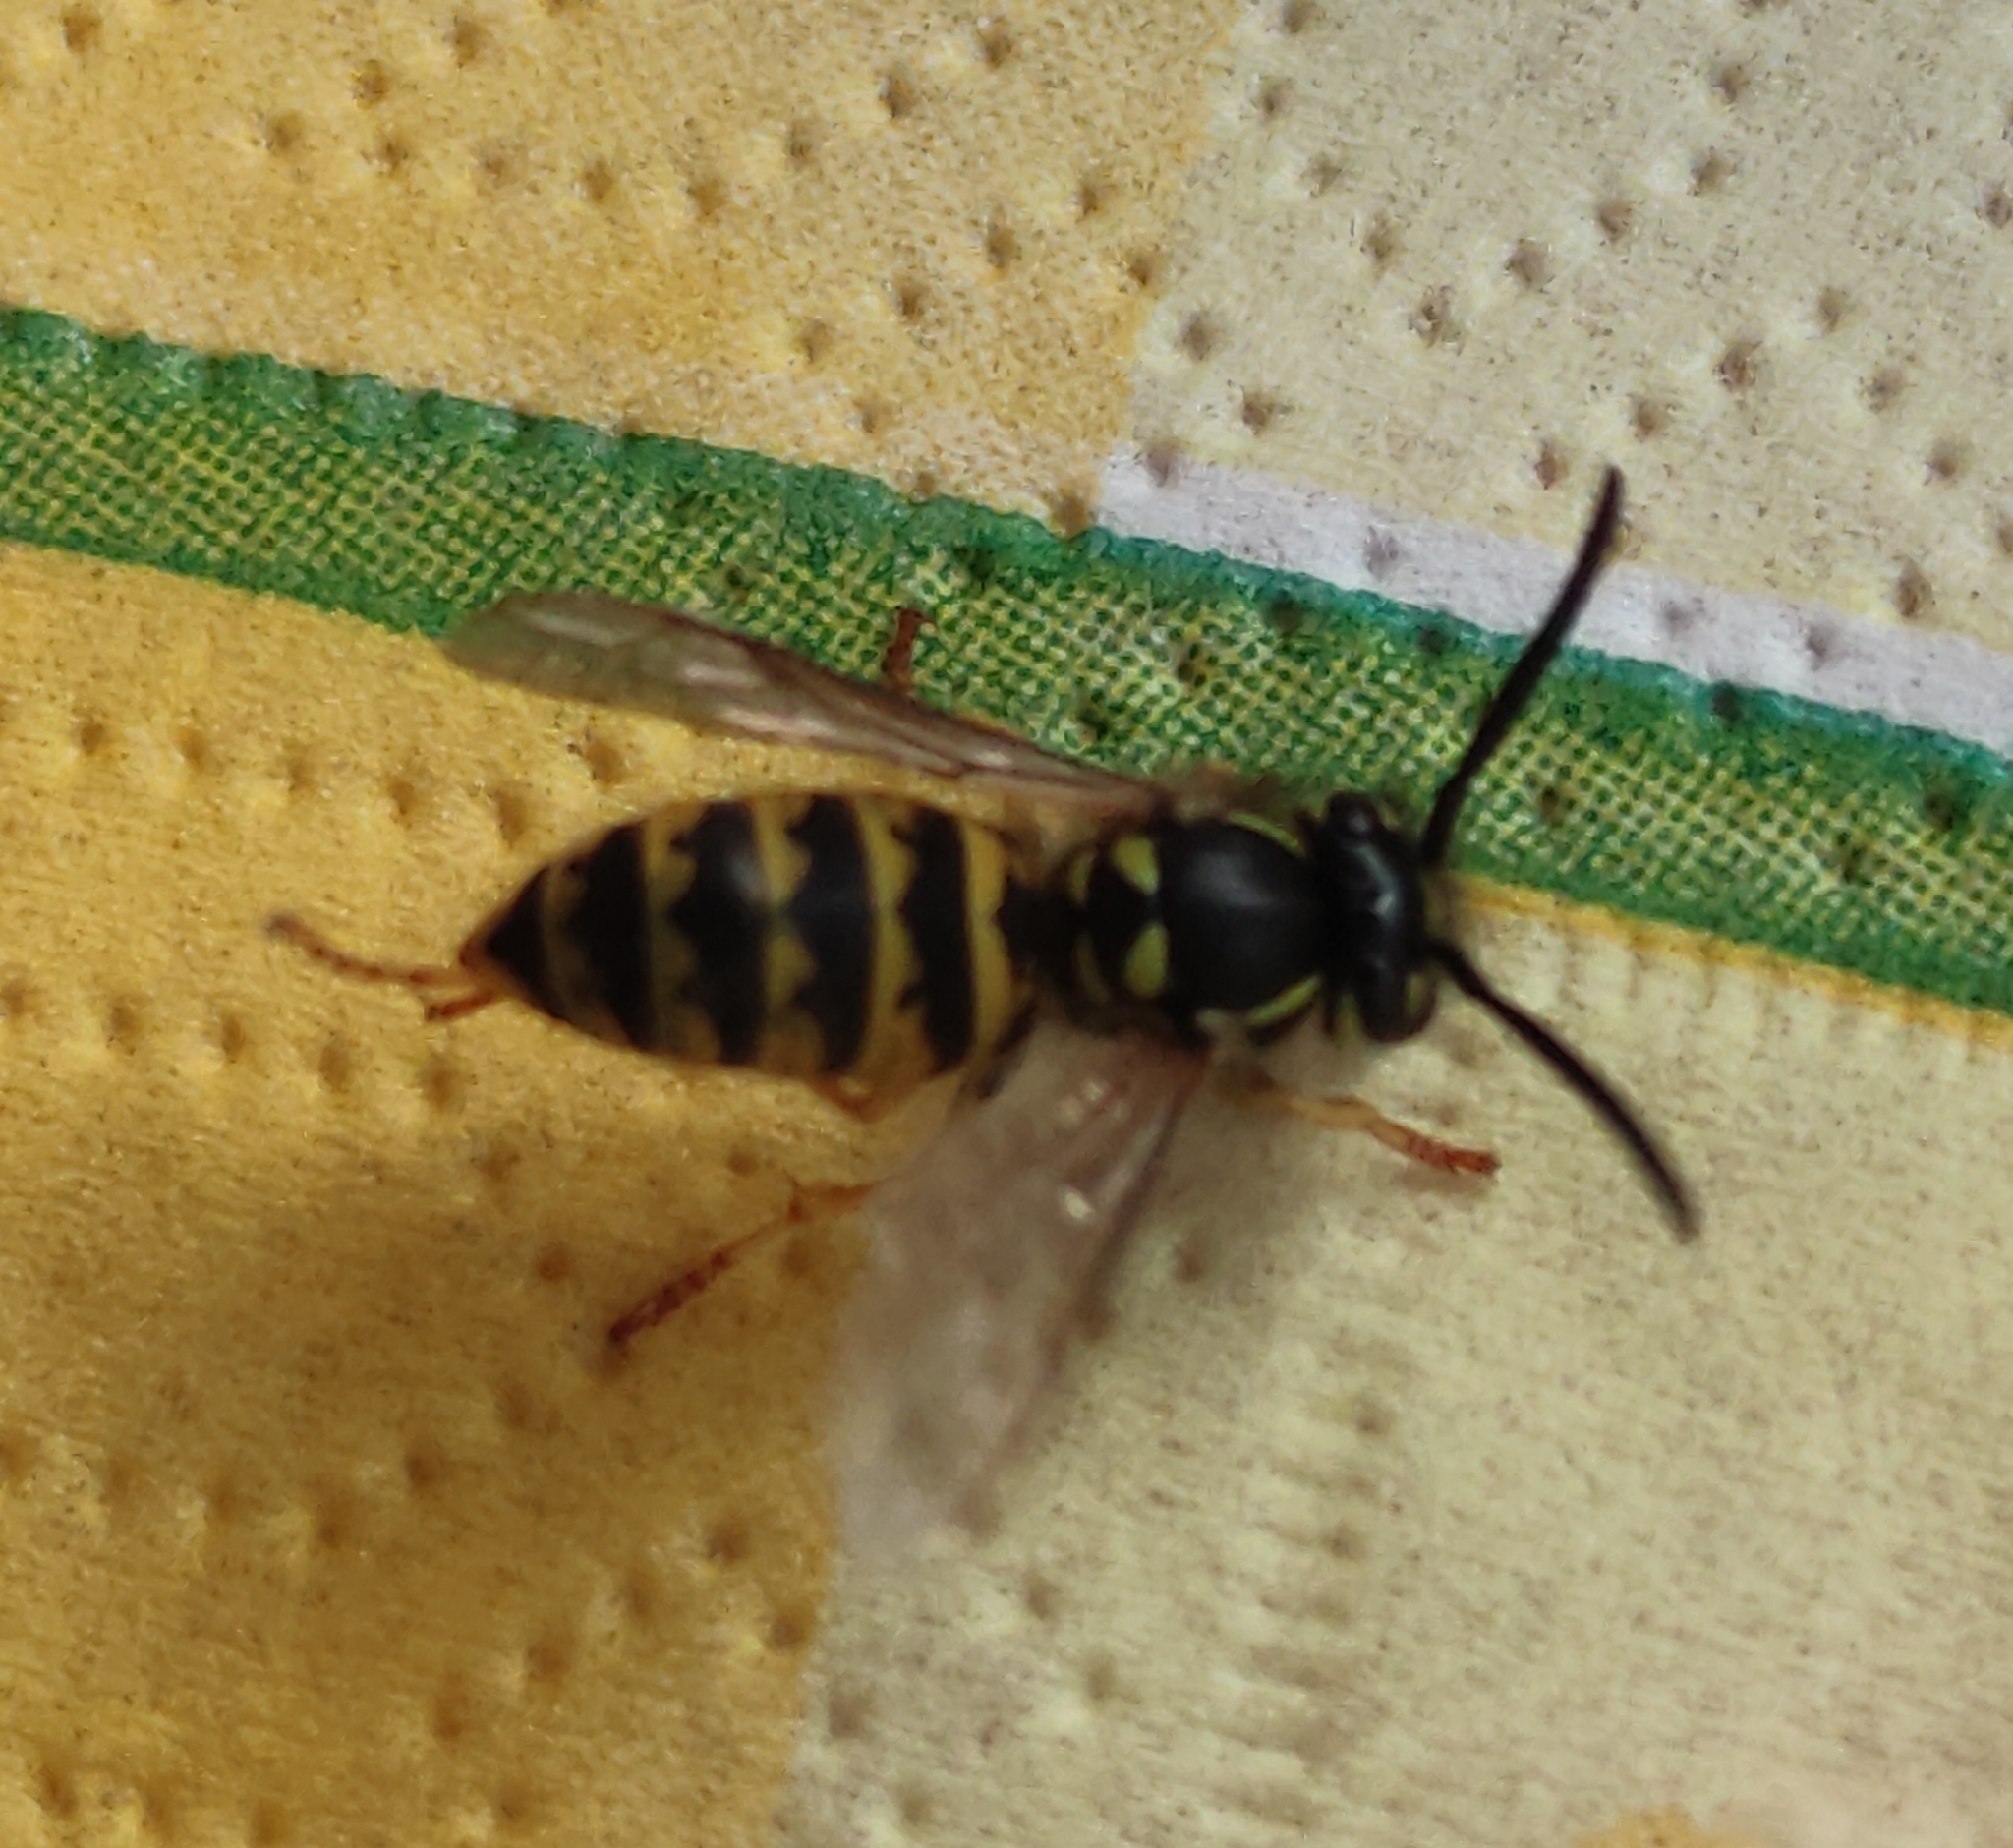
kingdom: Animalia
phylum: Arthropoda
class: Insecta
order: Hymenoptera
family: Vespidae
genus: Vespula
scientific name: Vespula vulgaris
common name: Common wasp
